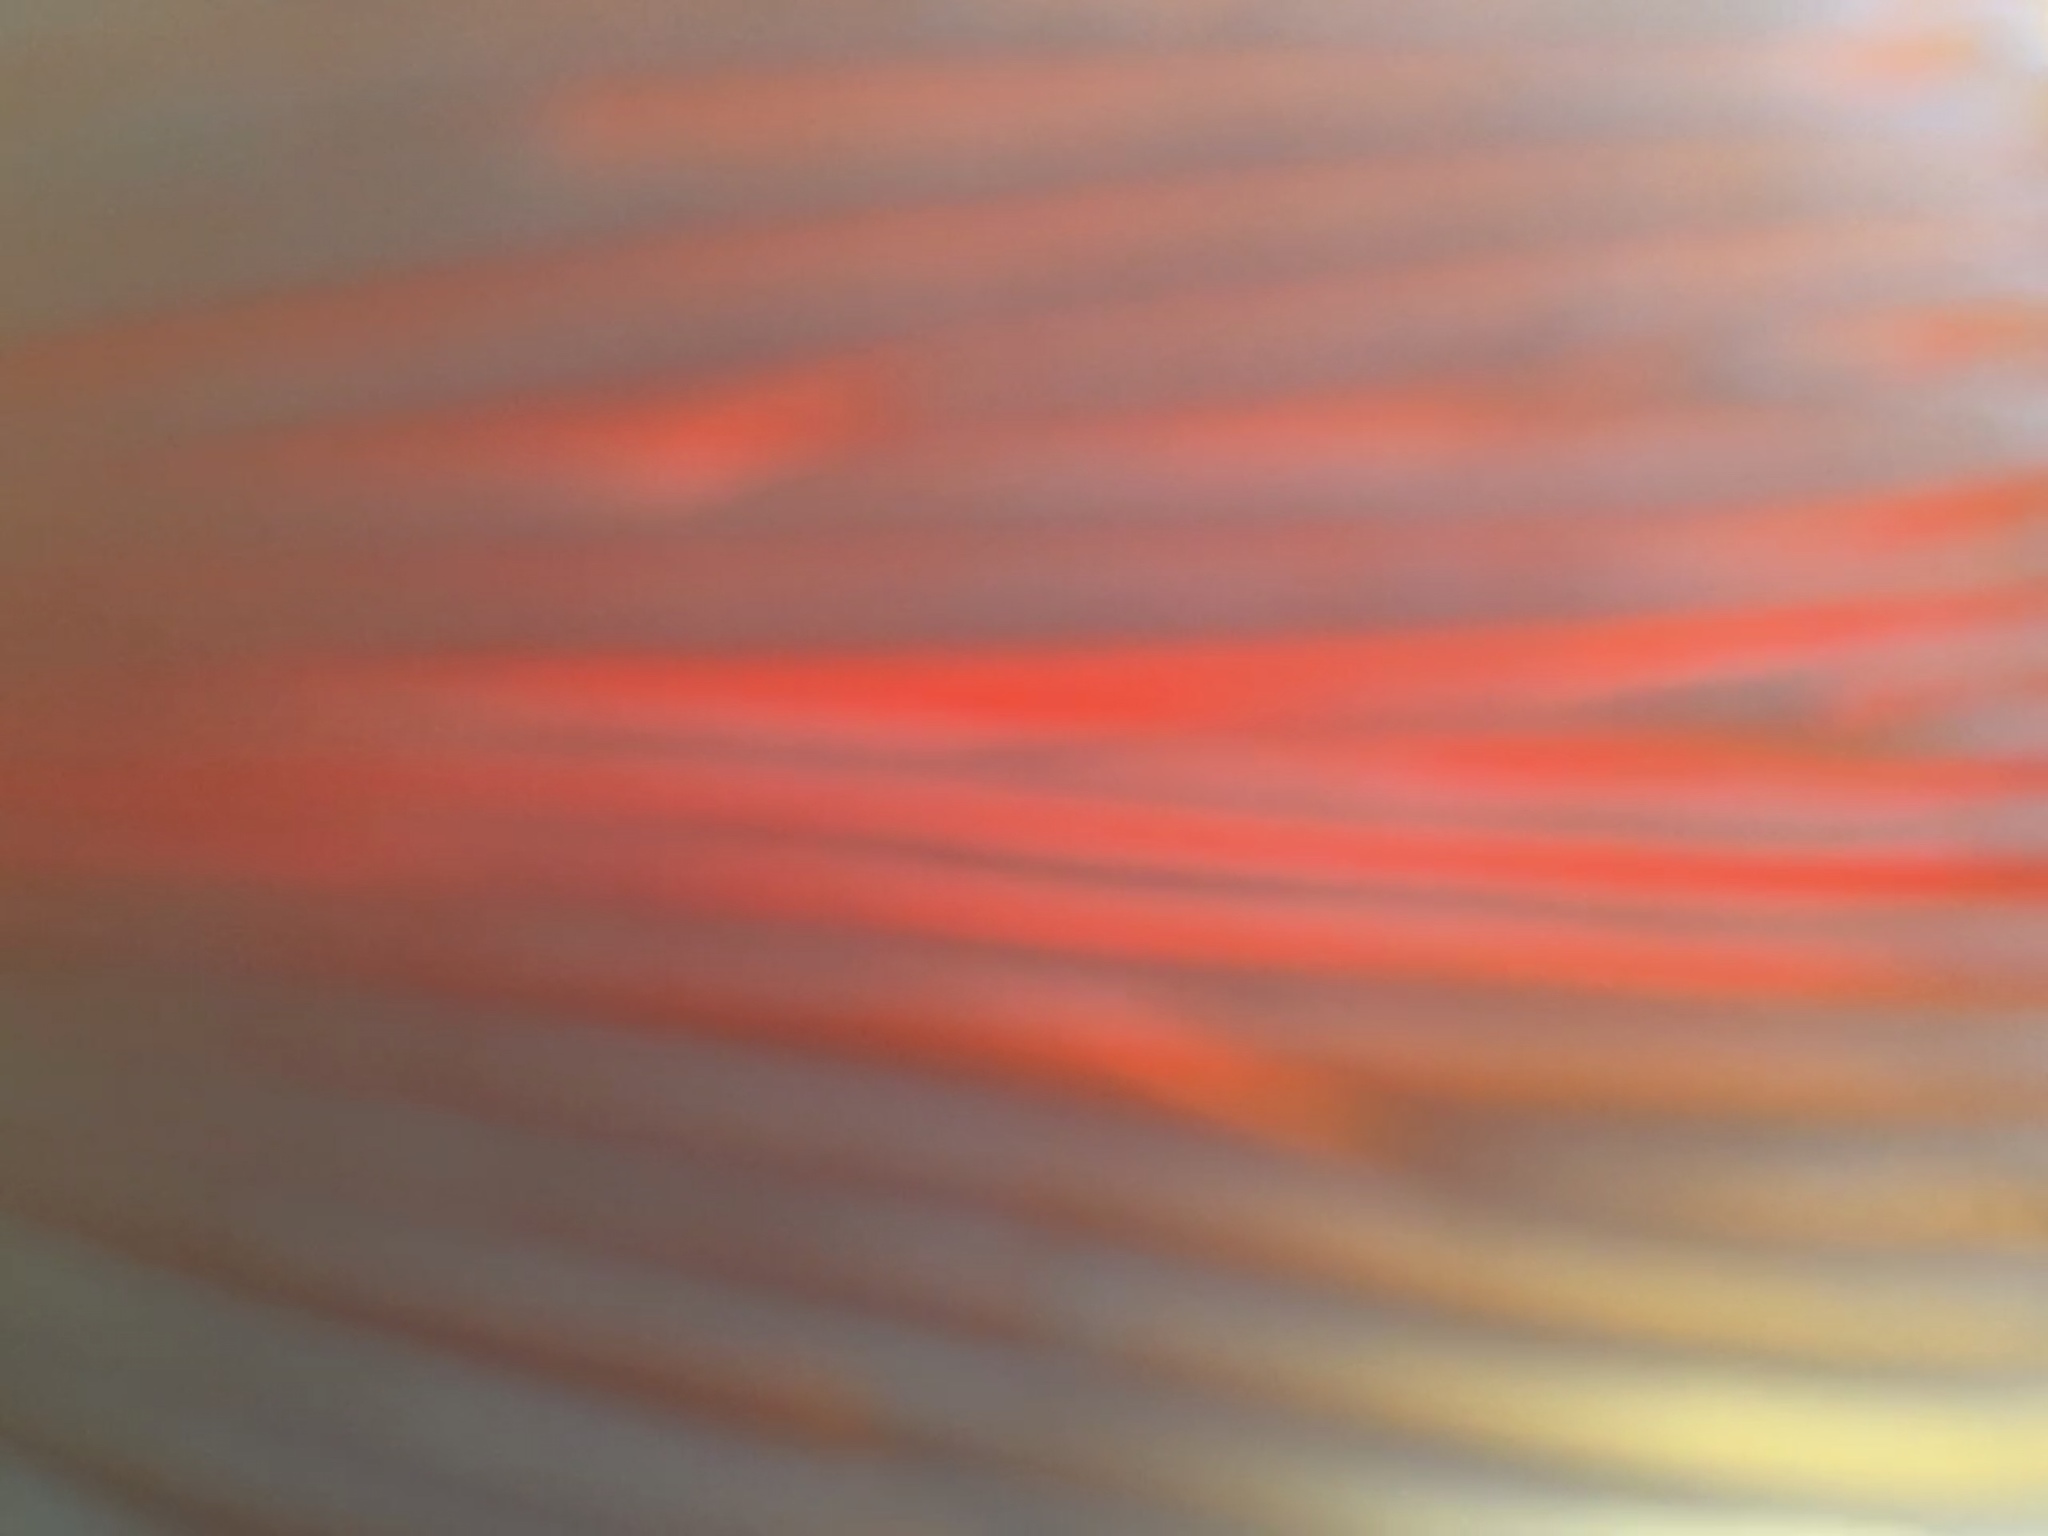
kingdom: Fungi
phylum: Basidiomycota
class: Agaricomycetes
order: Agaricales
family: Amanitaceae
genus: Amanita
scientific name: Amanita persicina
